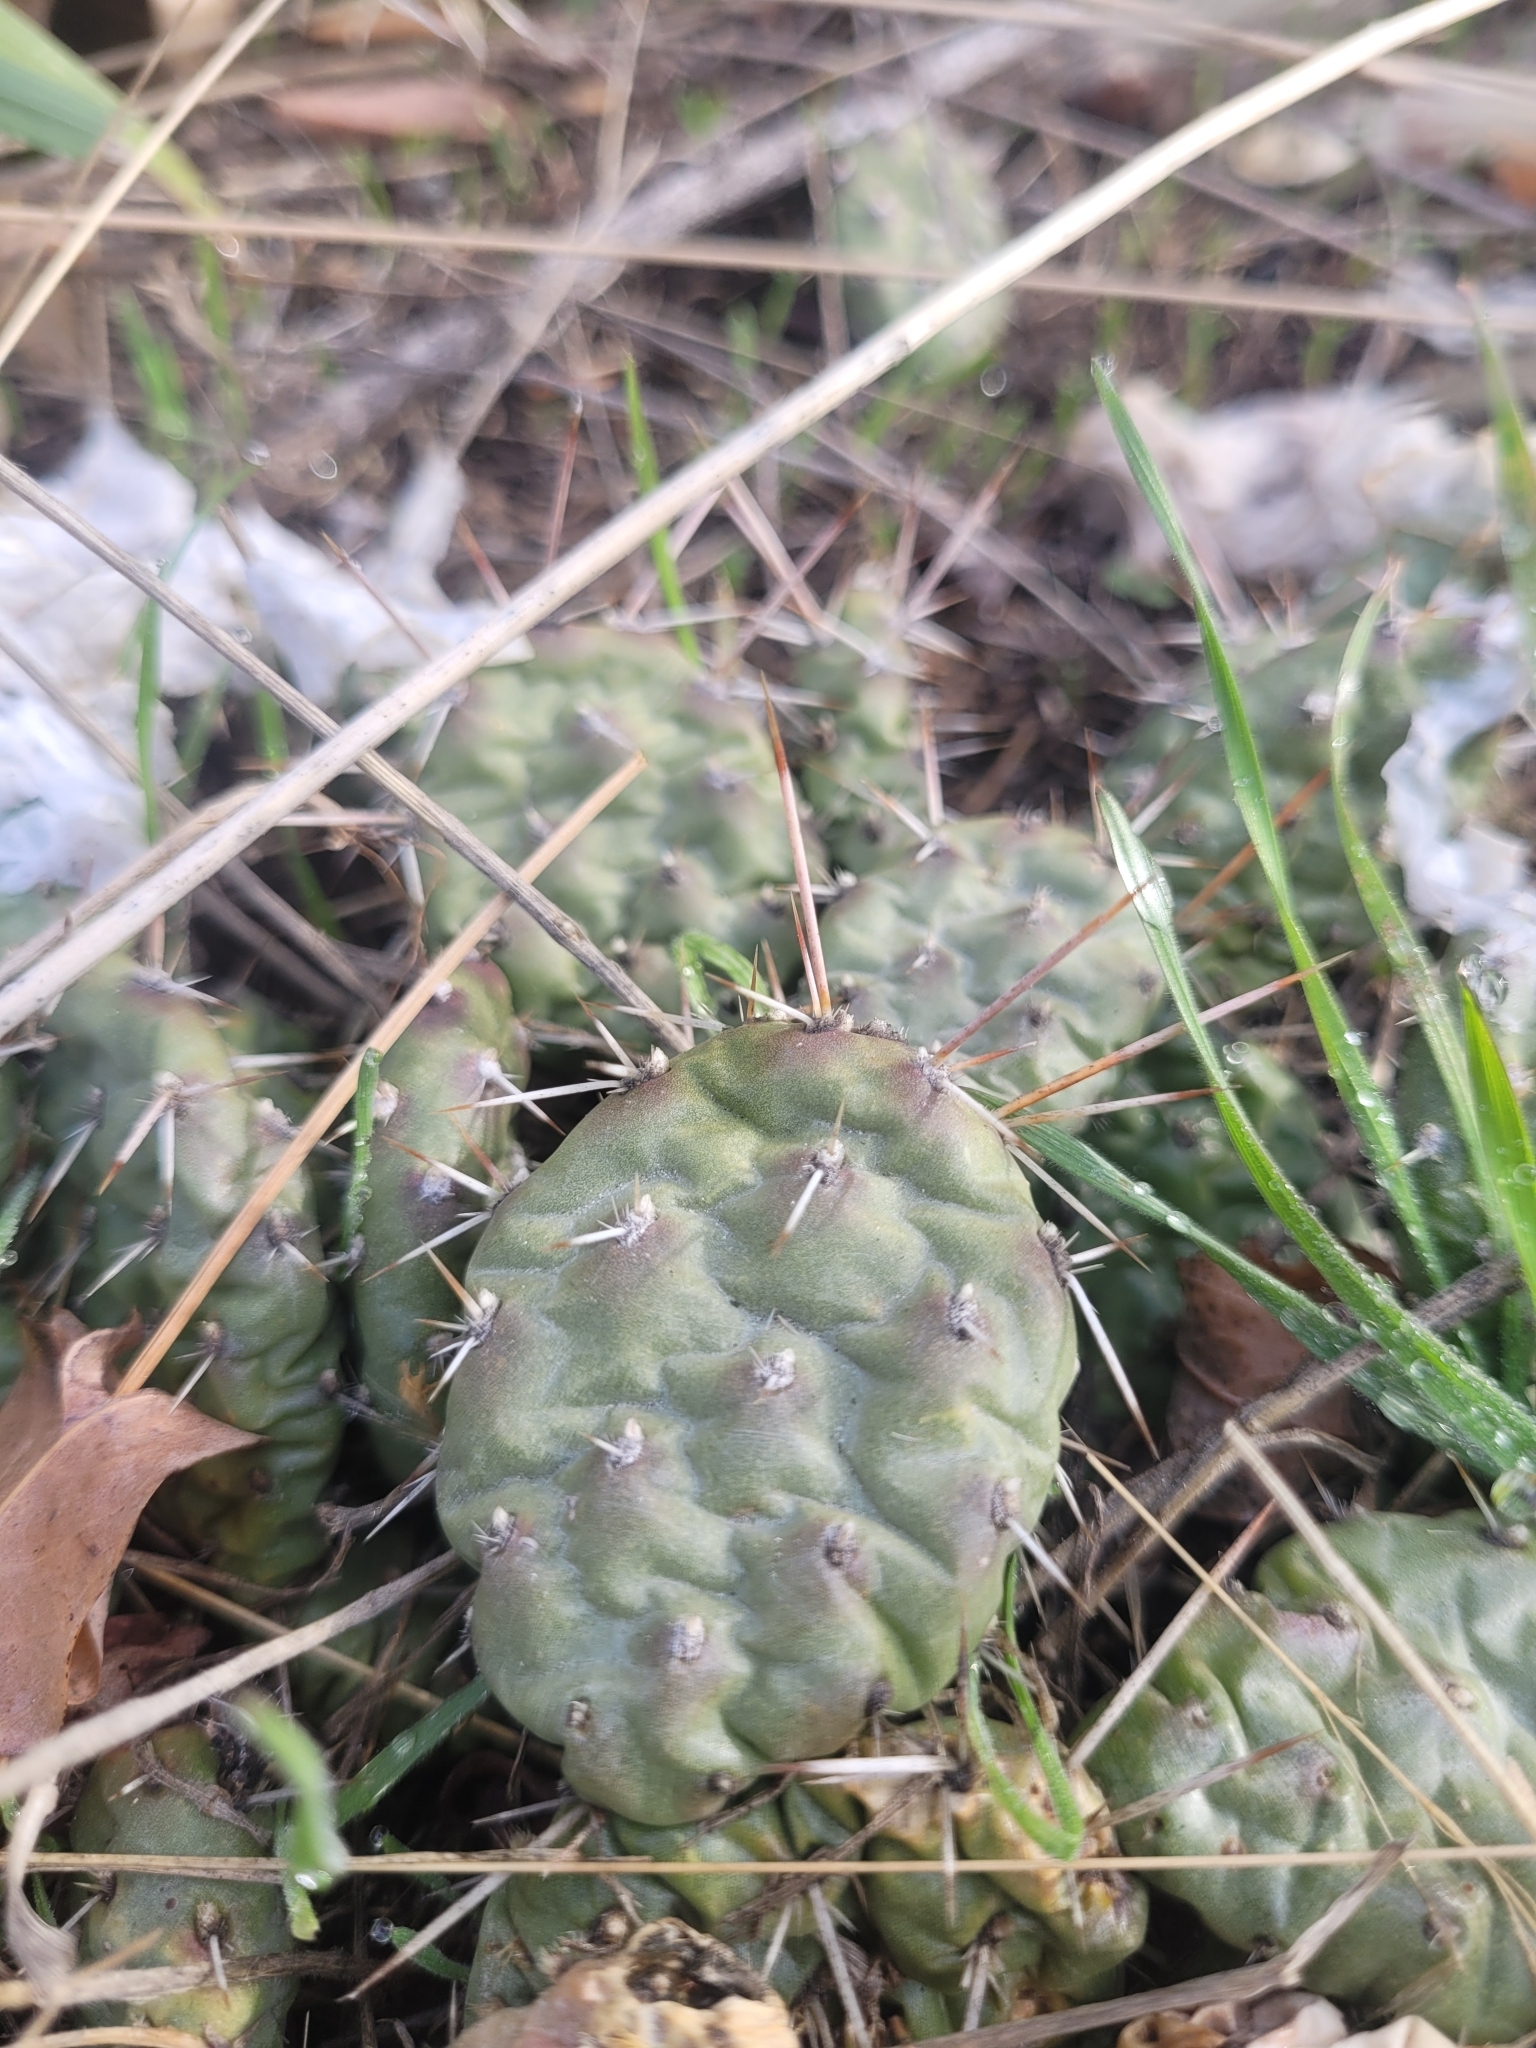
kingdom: Plantae
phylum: Tracheophyta
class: Magnoliopsida
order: Caryophyllales
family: Cactaceae
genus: Opuntia
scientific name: Opuntia fragilis
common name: Brittle cactus
